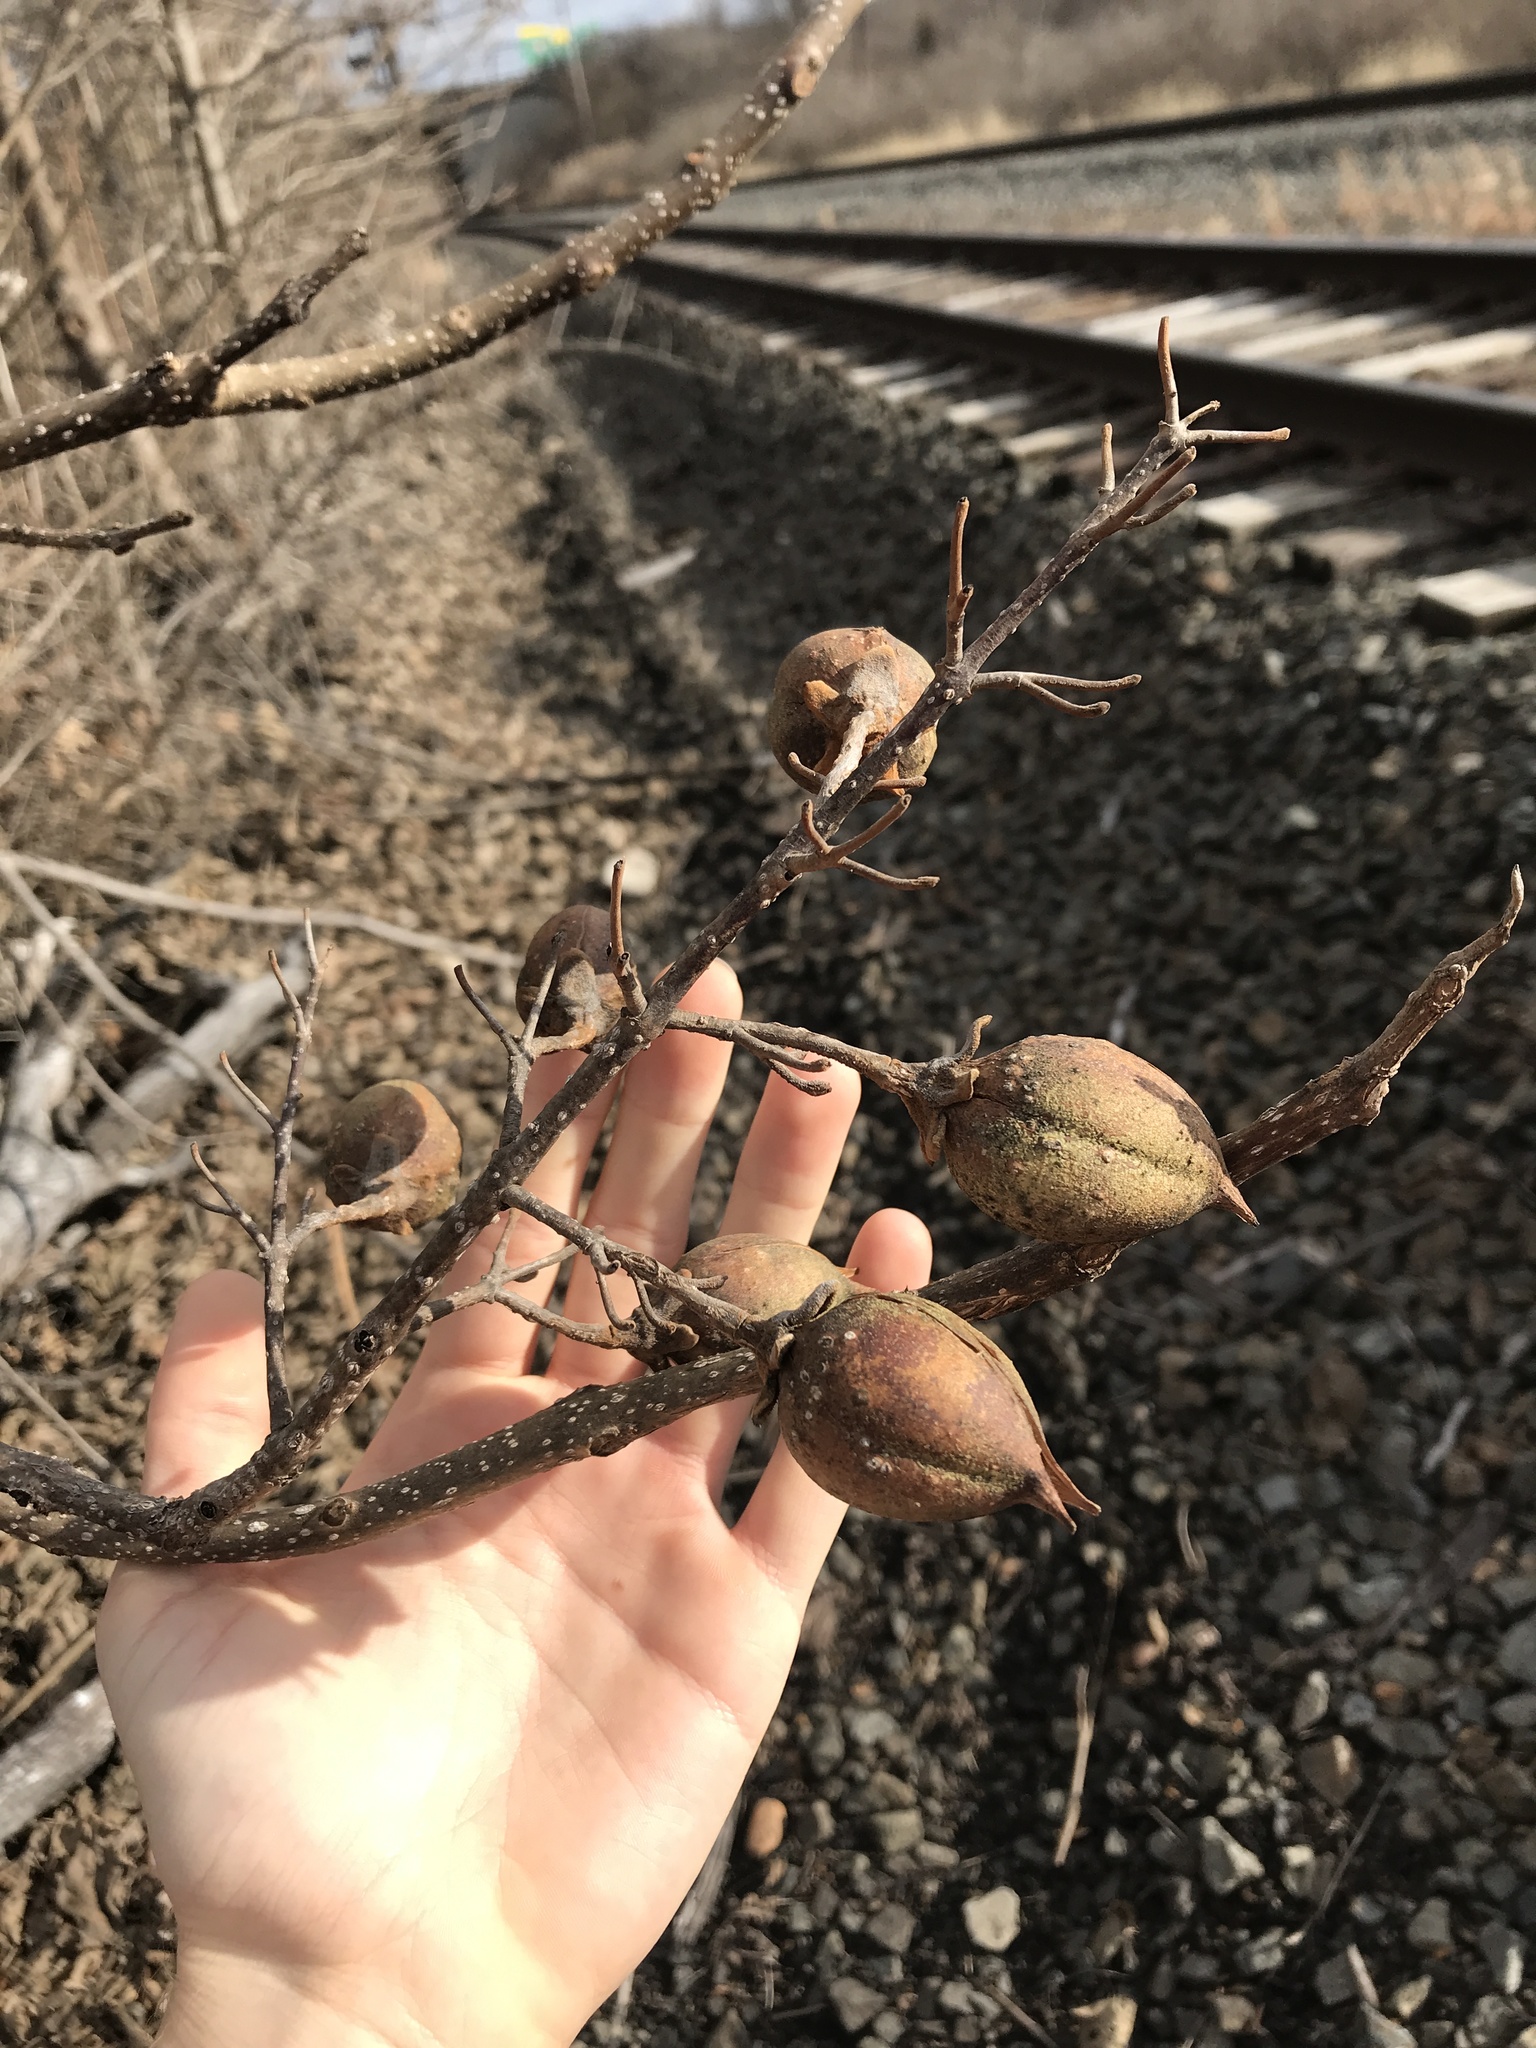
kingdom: Plantae
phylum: Tracheophyta
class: Magnoliopsida
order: Lamiales
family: Paulowniaceae
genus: Paulownia
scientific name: Paulownia tomentosa
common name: Foxglove-tree
